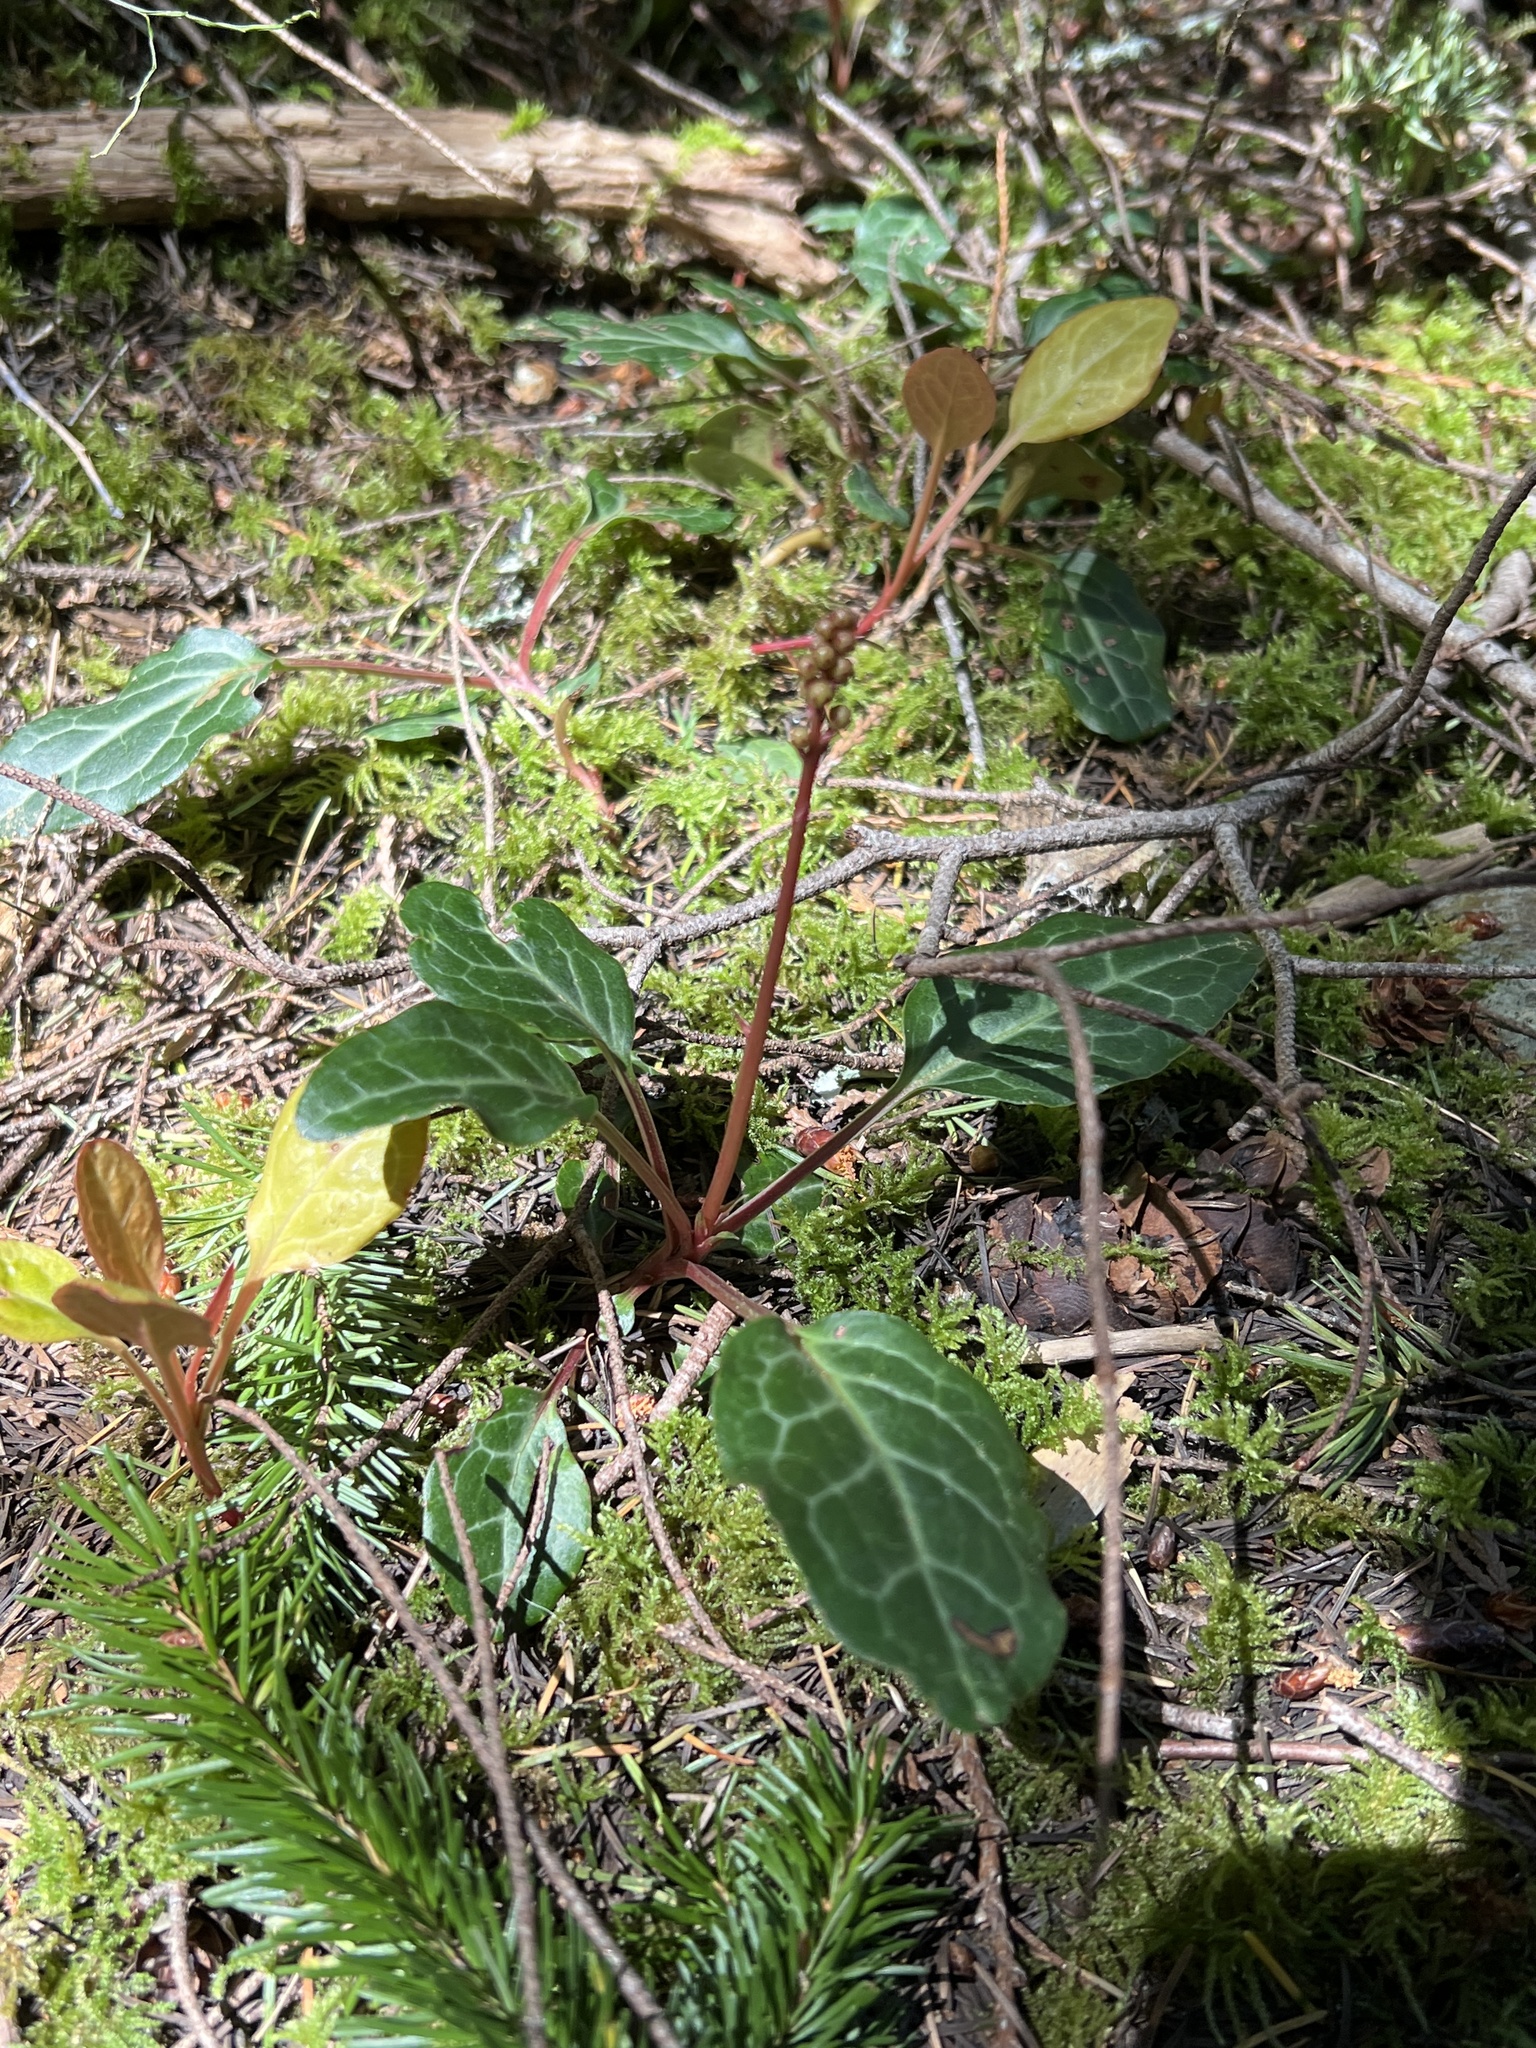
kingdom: Plantae
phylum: Tracheophyta
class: Magnoliopsida
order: Ericales
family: Ericaceae
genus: Pyrola
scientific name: Pyrola picta
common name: White-vein wintergreen
